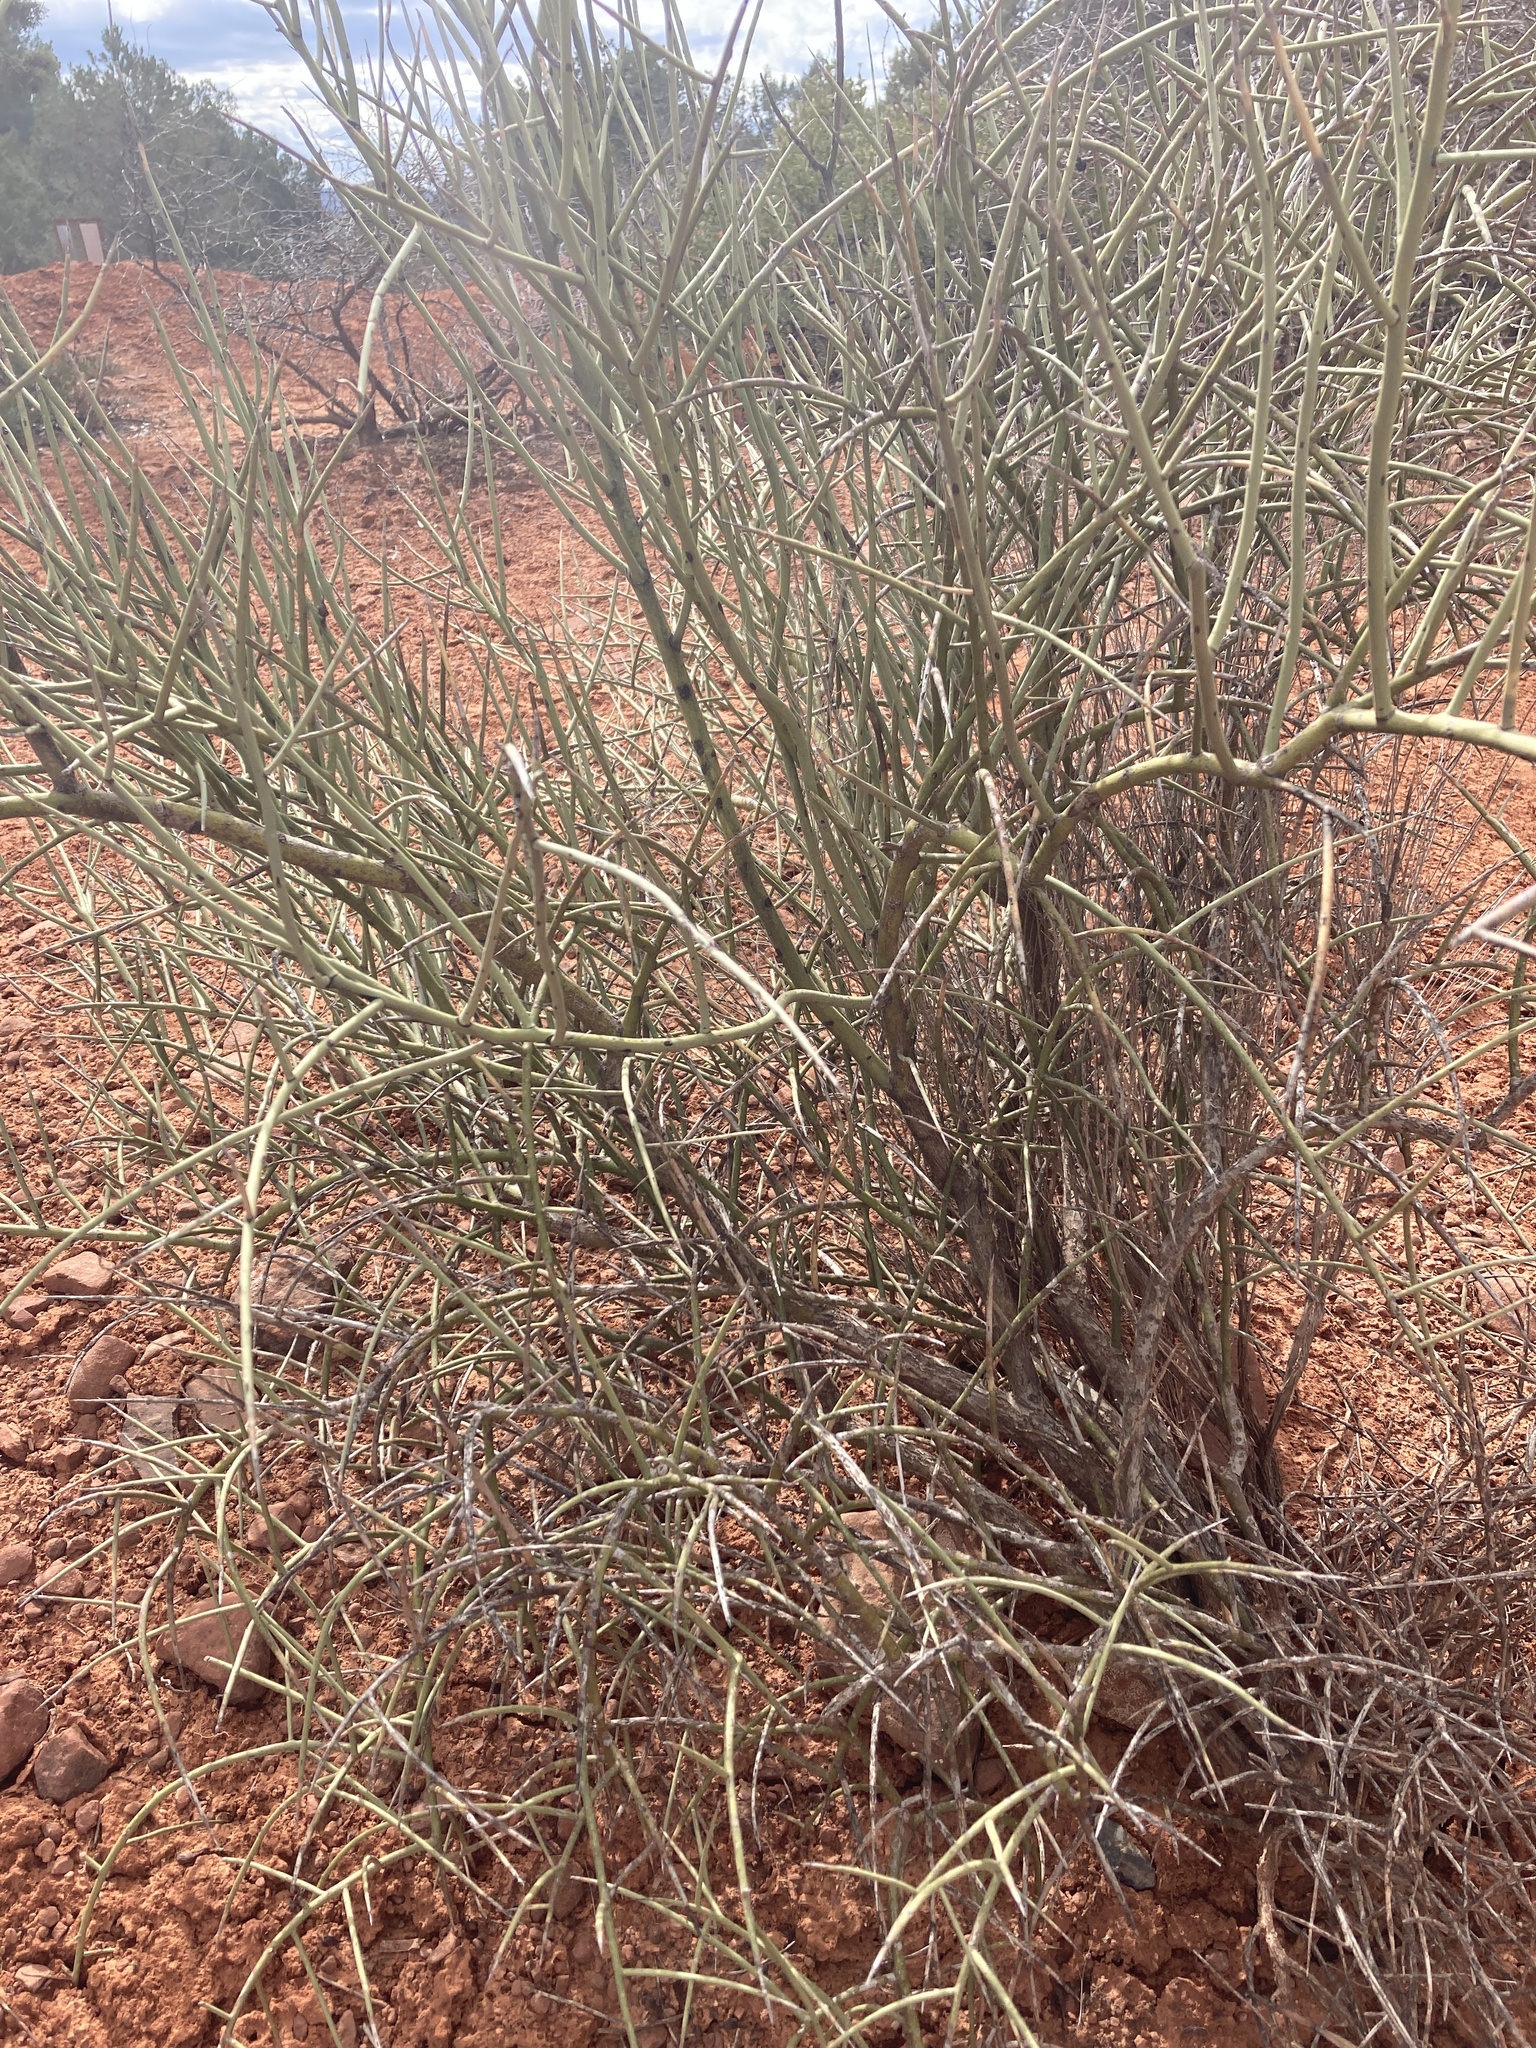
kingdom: Plantae
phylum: Tracheophyta
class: Magnoliopsida
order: Celastrales
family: Celastraceae
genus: Canotia
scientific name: Canotia holacantha
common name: Crucifixion thorns
